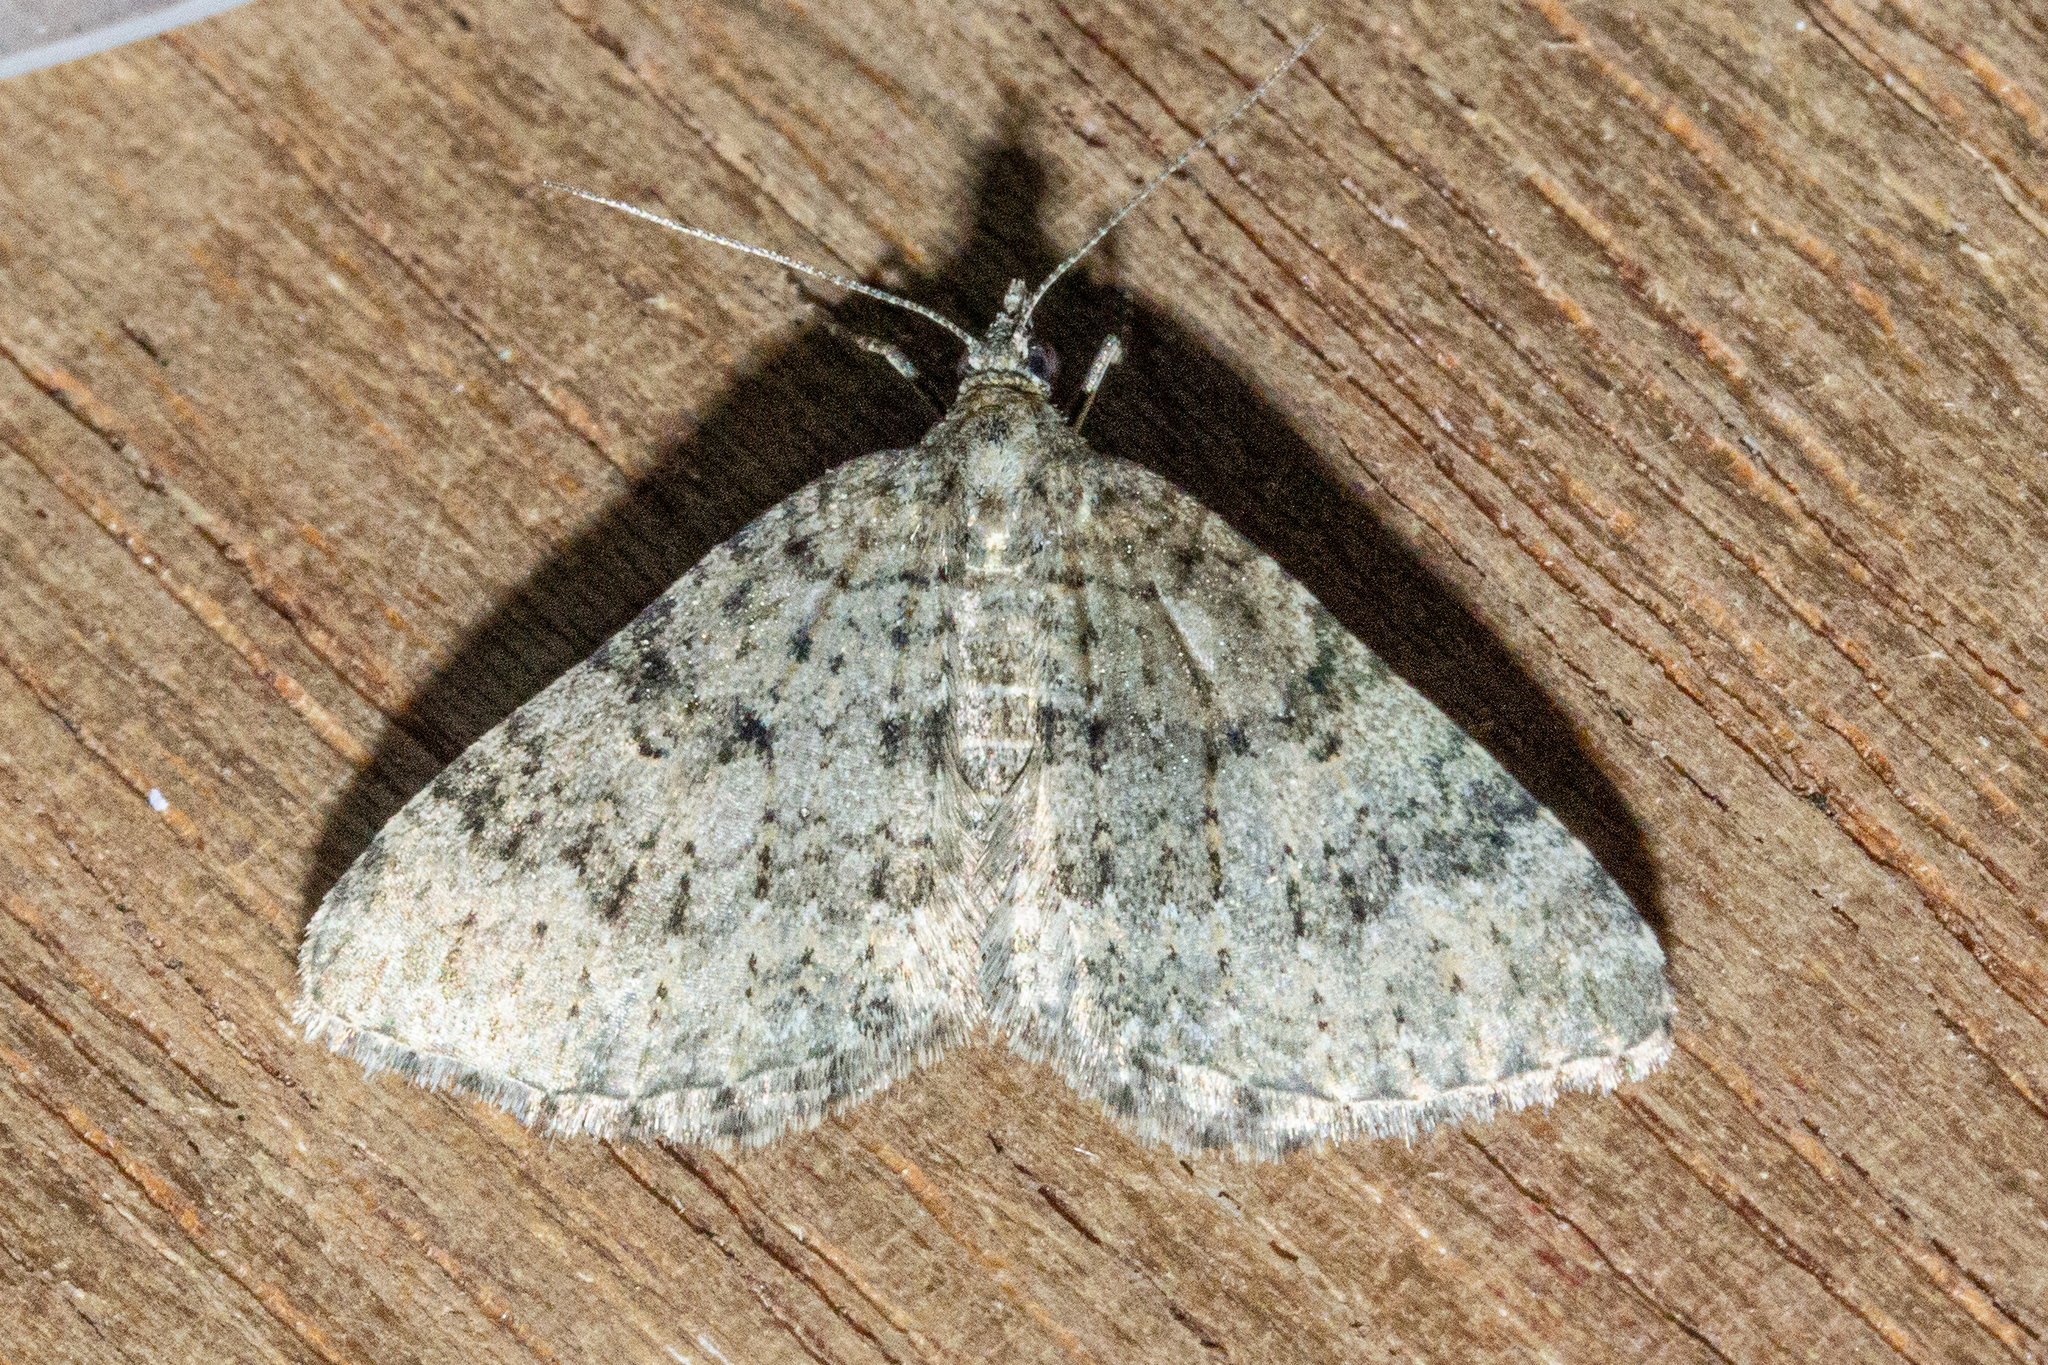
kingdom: Animalia
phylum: Arthropoda
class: Insecta
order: Lepidoptera
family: Geometridae
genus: Helastia
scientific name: Helastia corcularia
